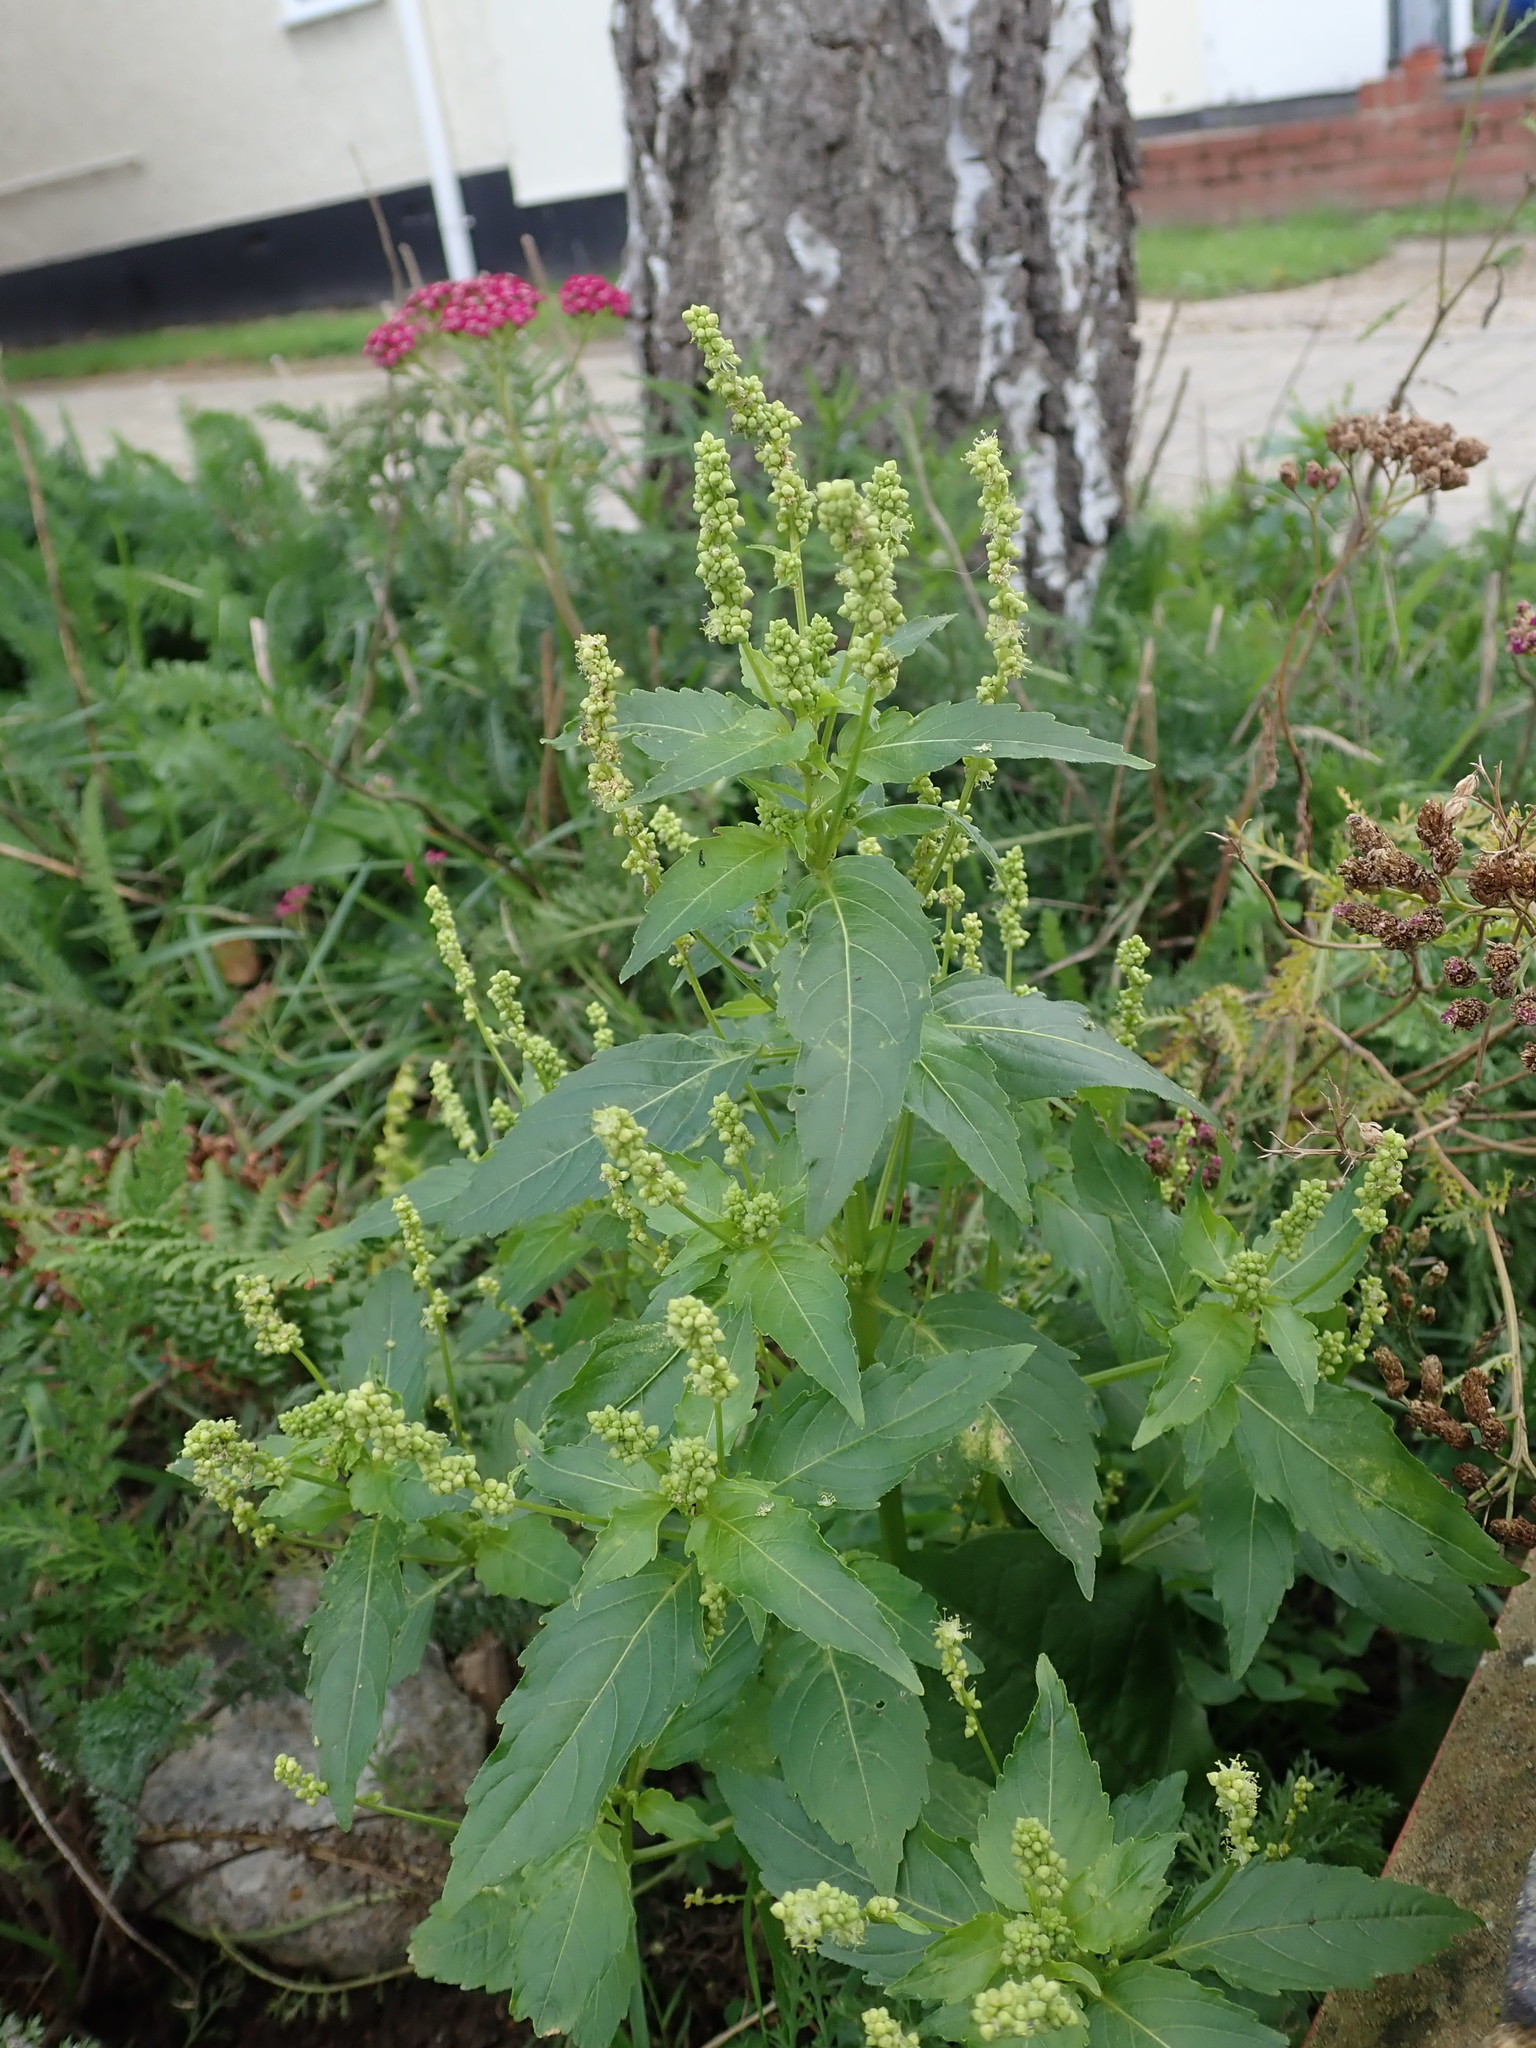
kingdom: Plantae
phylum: Tracheophyta
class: Magnoliopsida
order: Malpighiales
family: Euphorbiaceae
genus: Mercurialis
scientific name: Mercurialis annua
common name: Annual mercury
